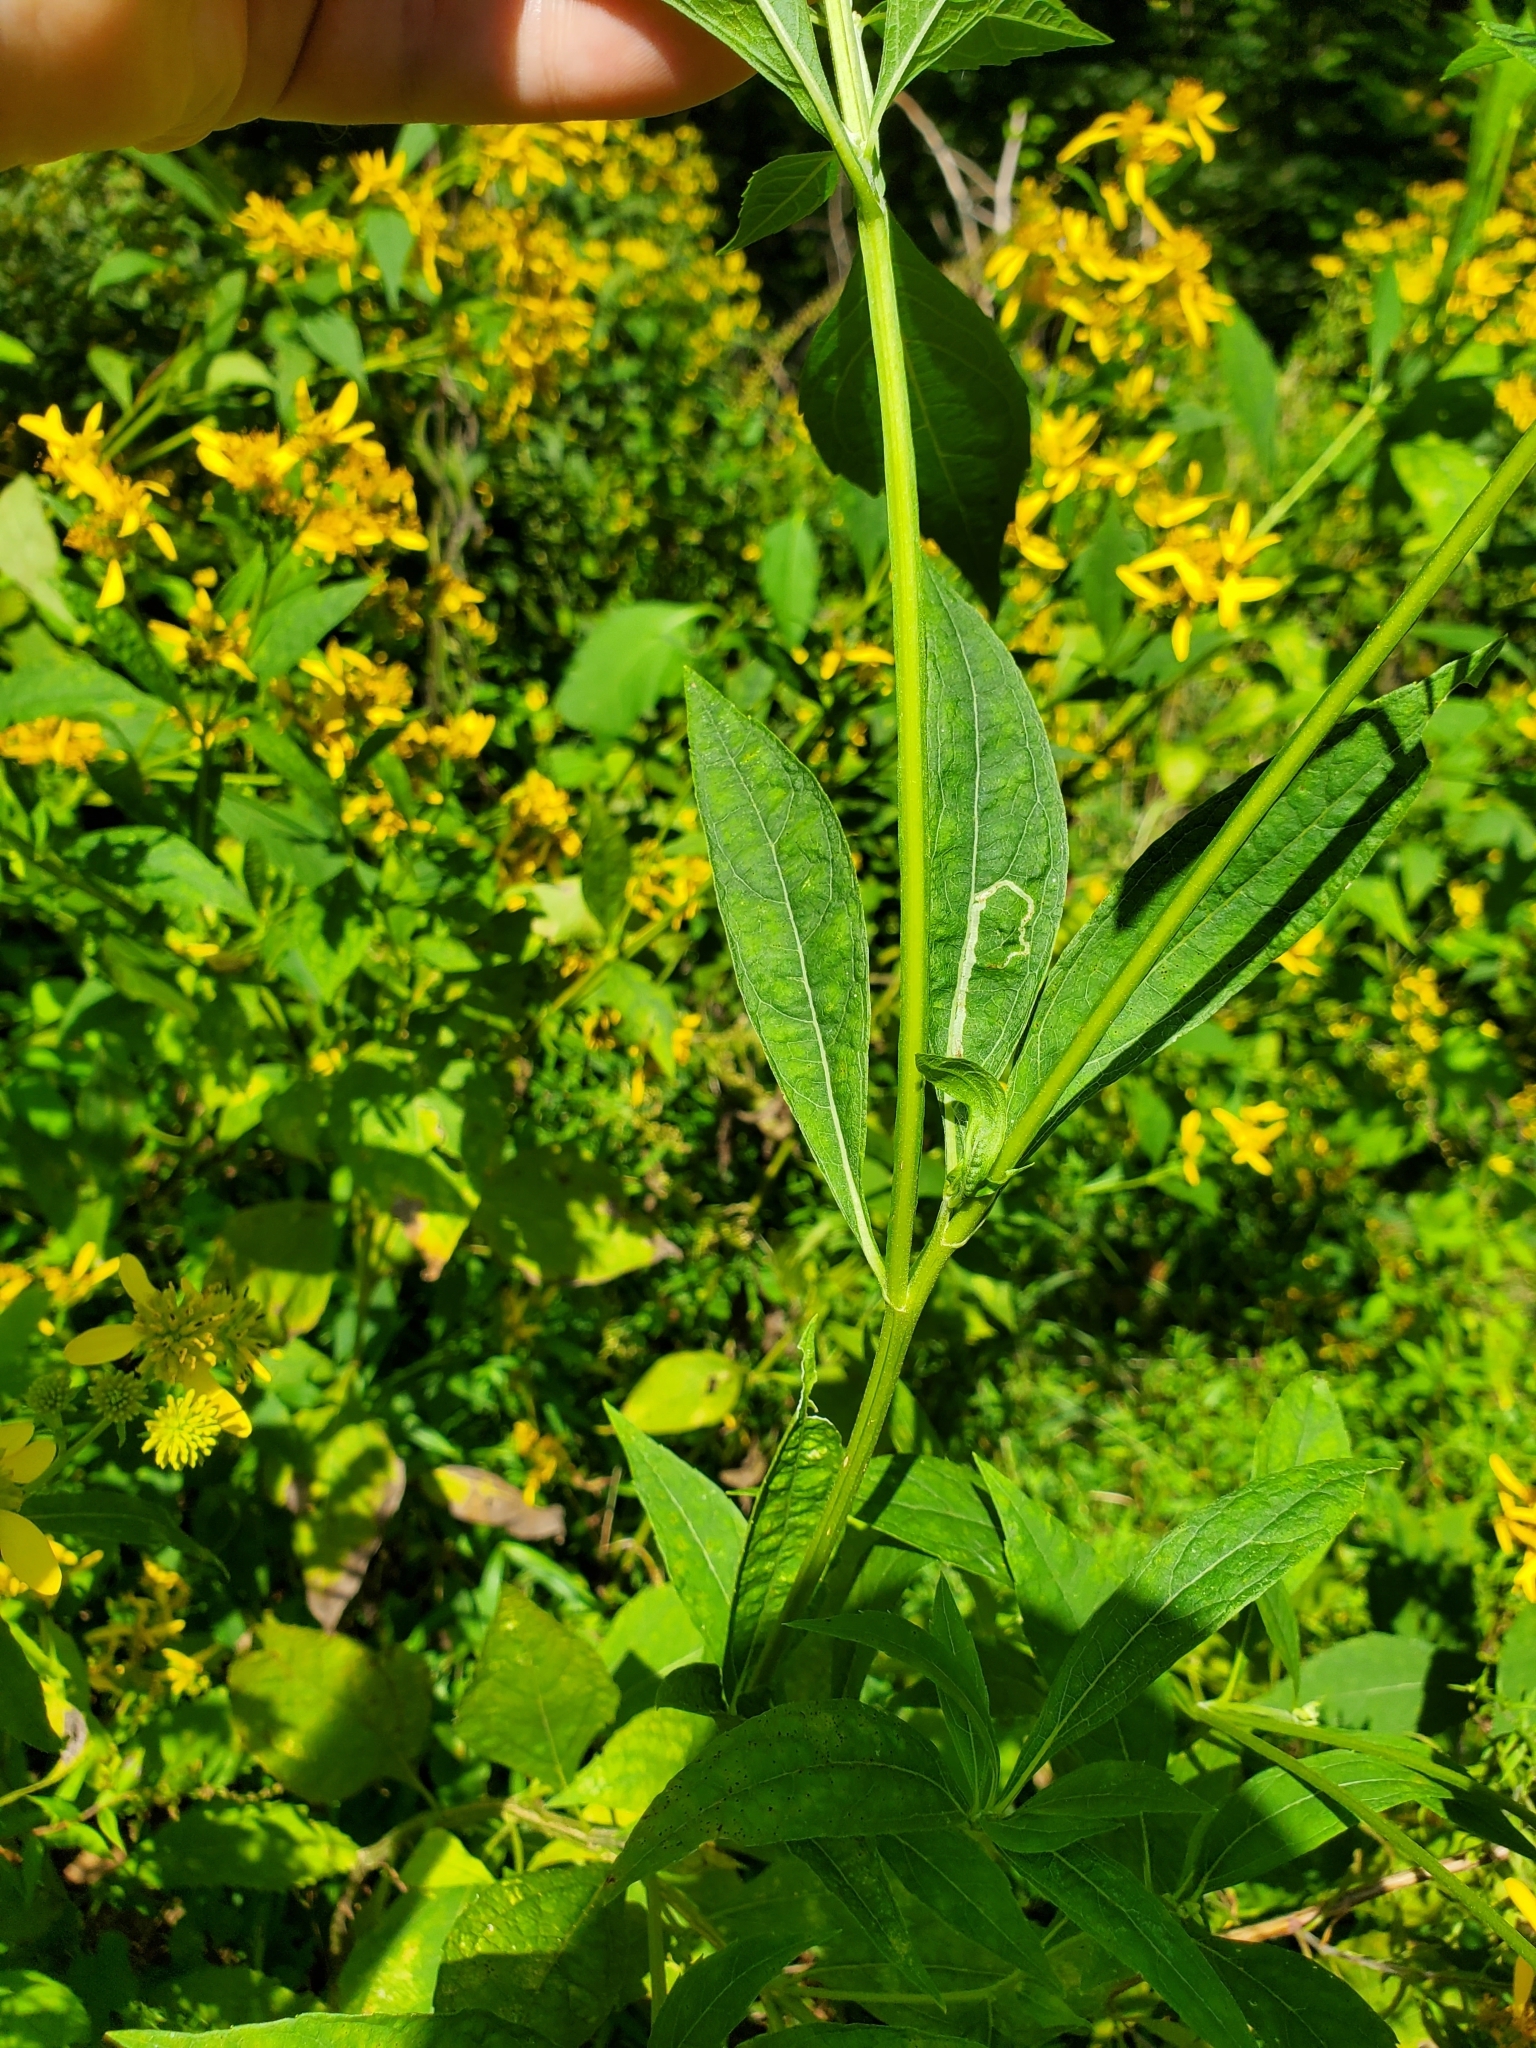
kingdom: Plantae
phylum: Tracheophyta
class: Magnoliopsida
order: Asterales
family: Asteraceae
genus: Verbesina
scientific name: Verbesina occidentalis
